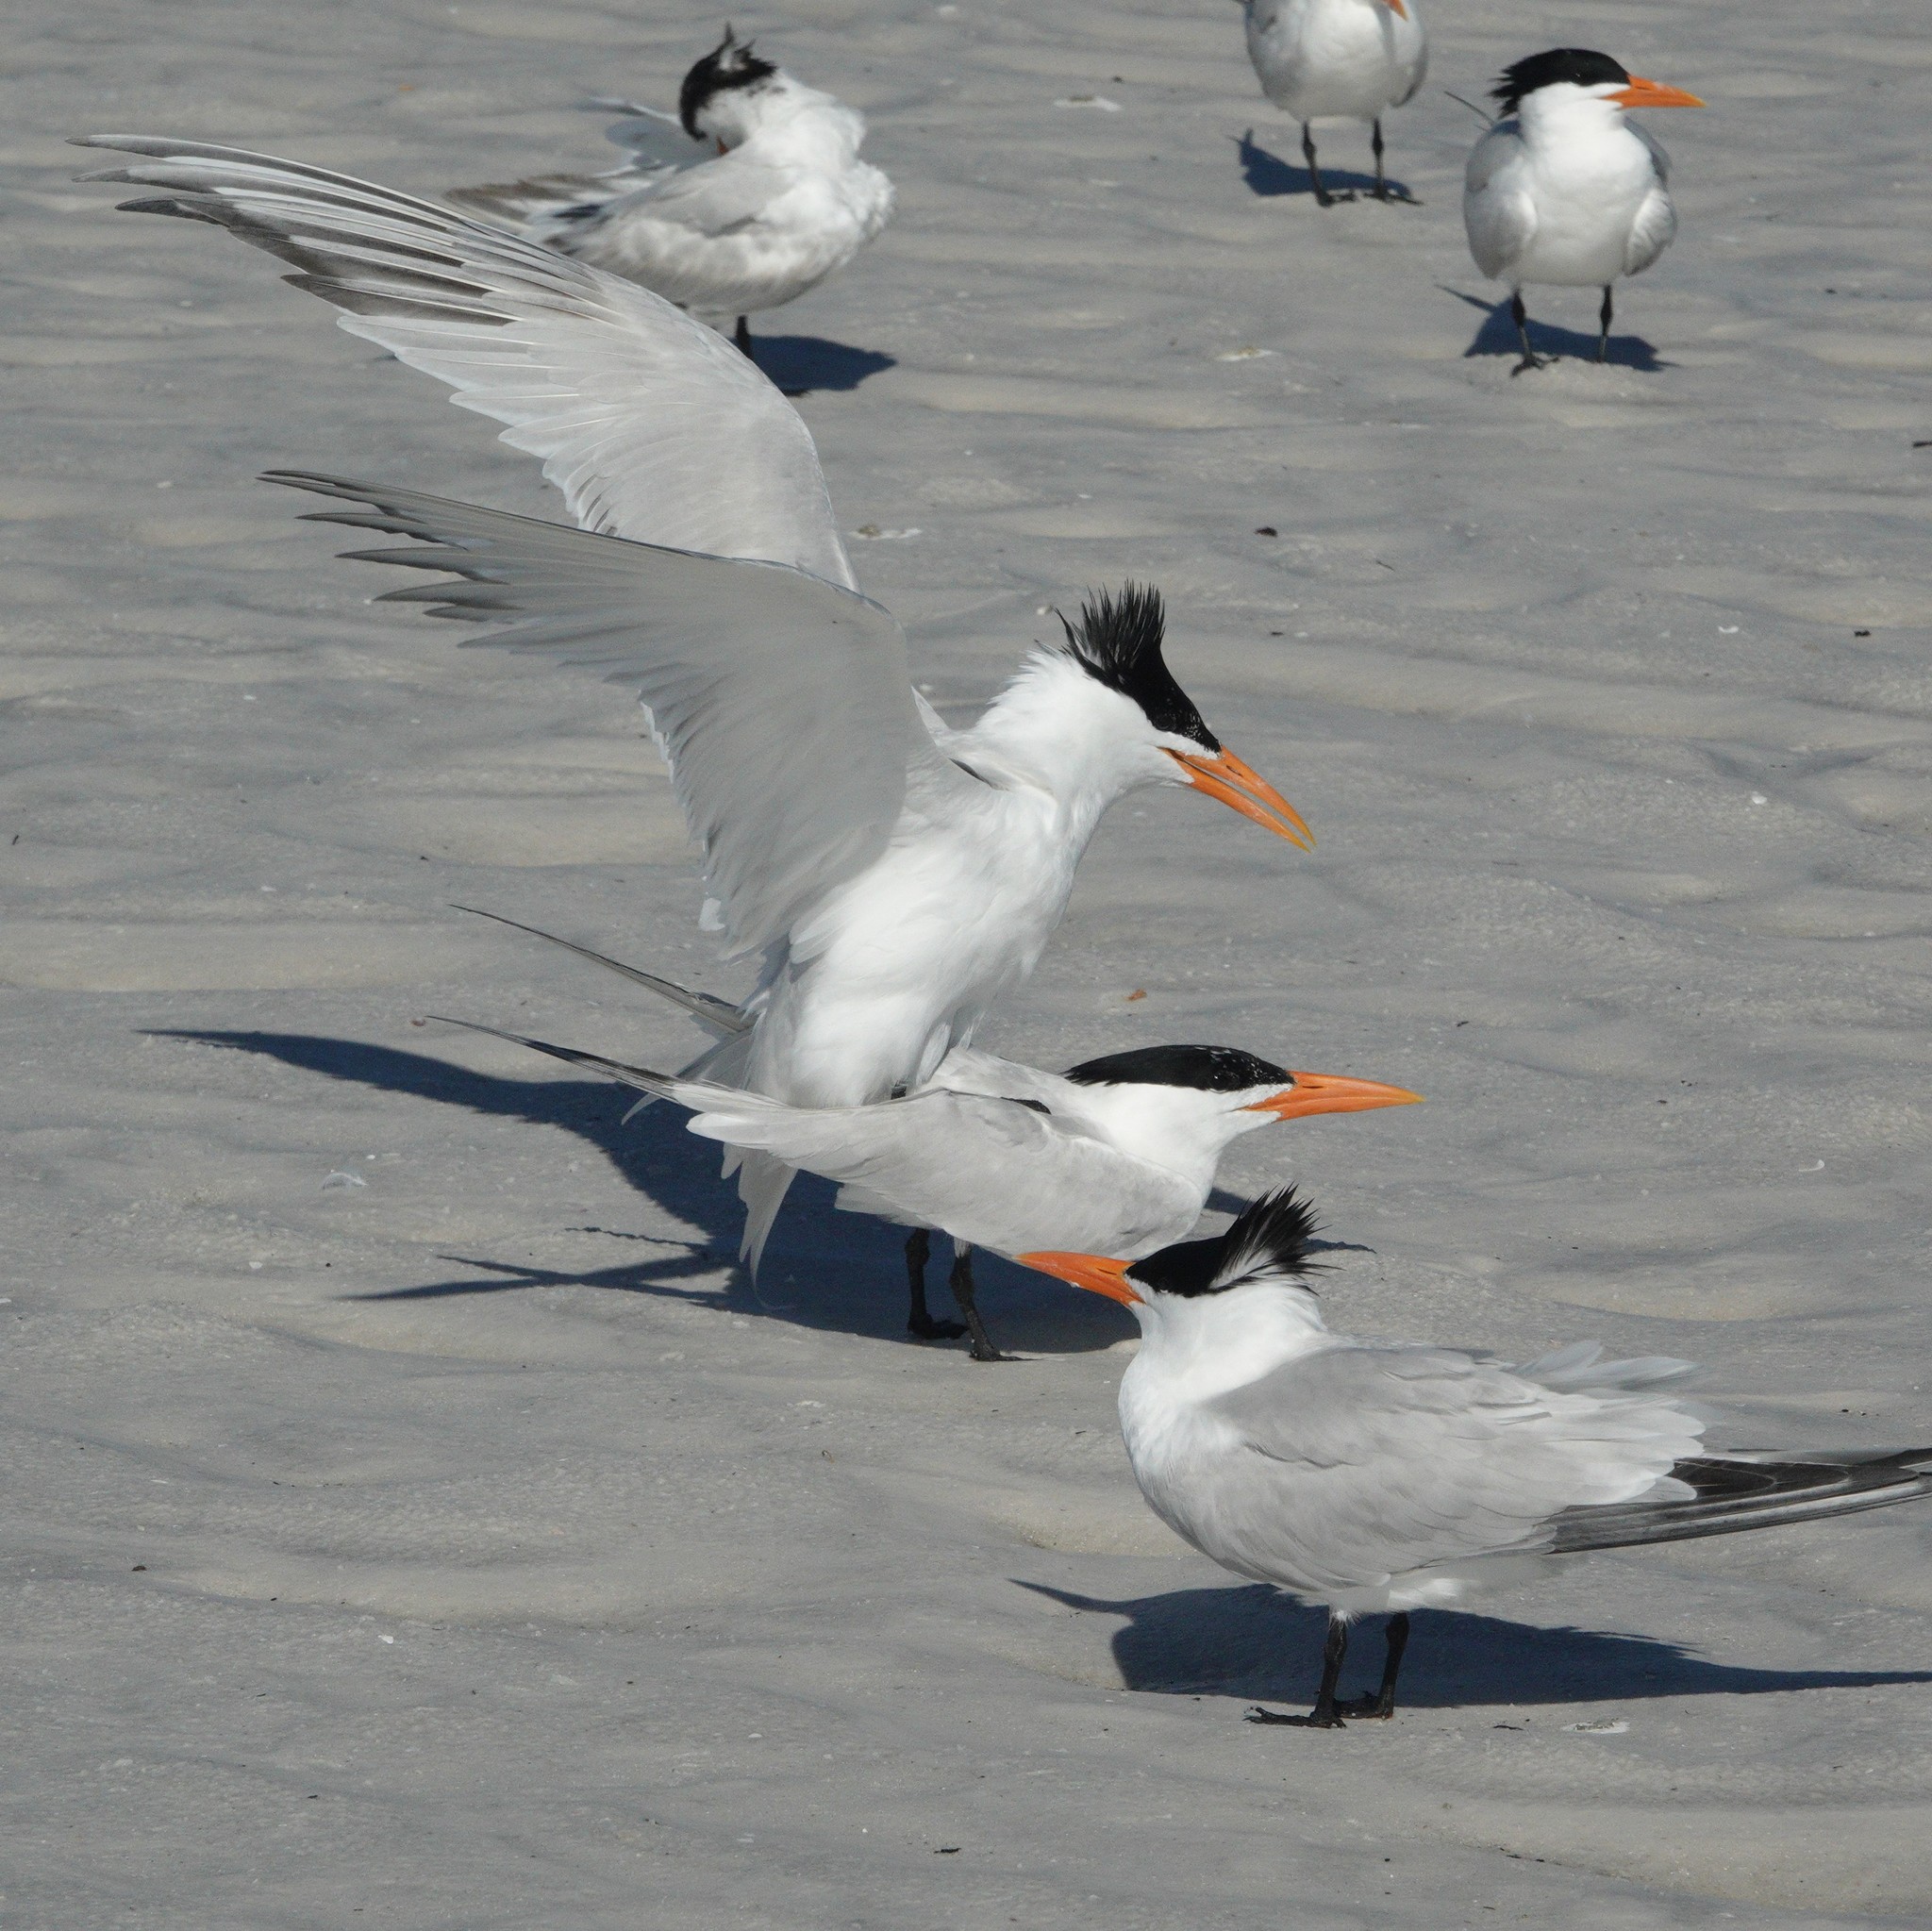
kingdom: Animalia
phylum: Chordata
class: Aves
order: Charadriiformes
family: Laridae
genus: Thalasseus
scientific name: Thalasseus maximus
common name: Royal tern
